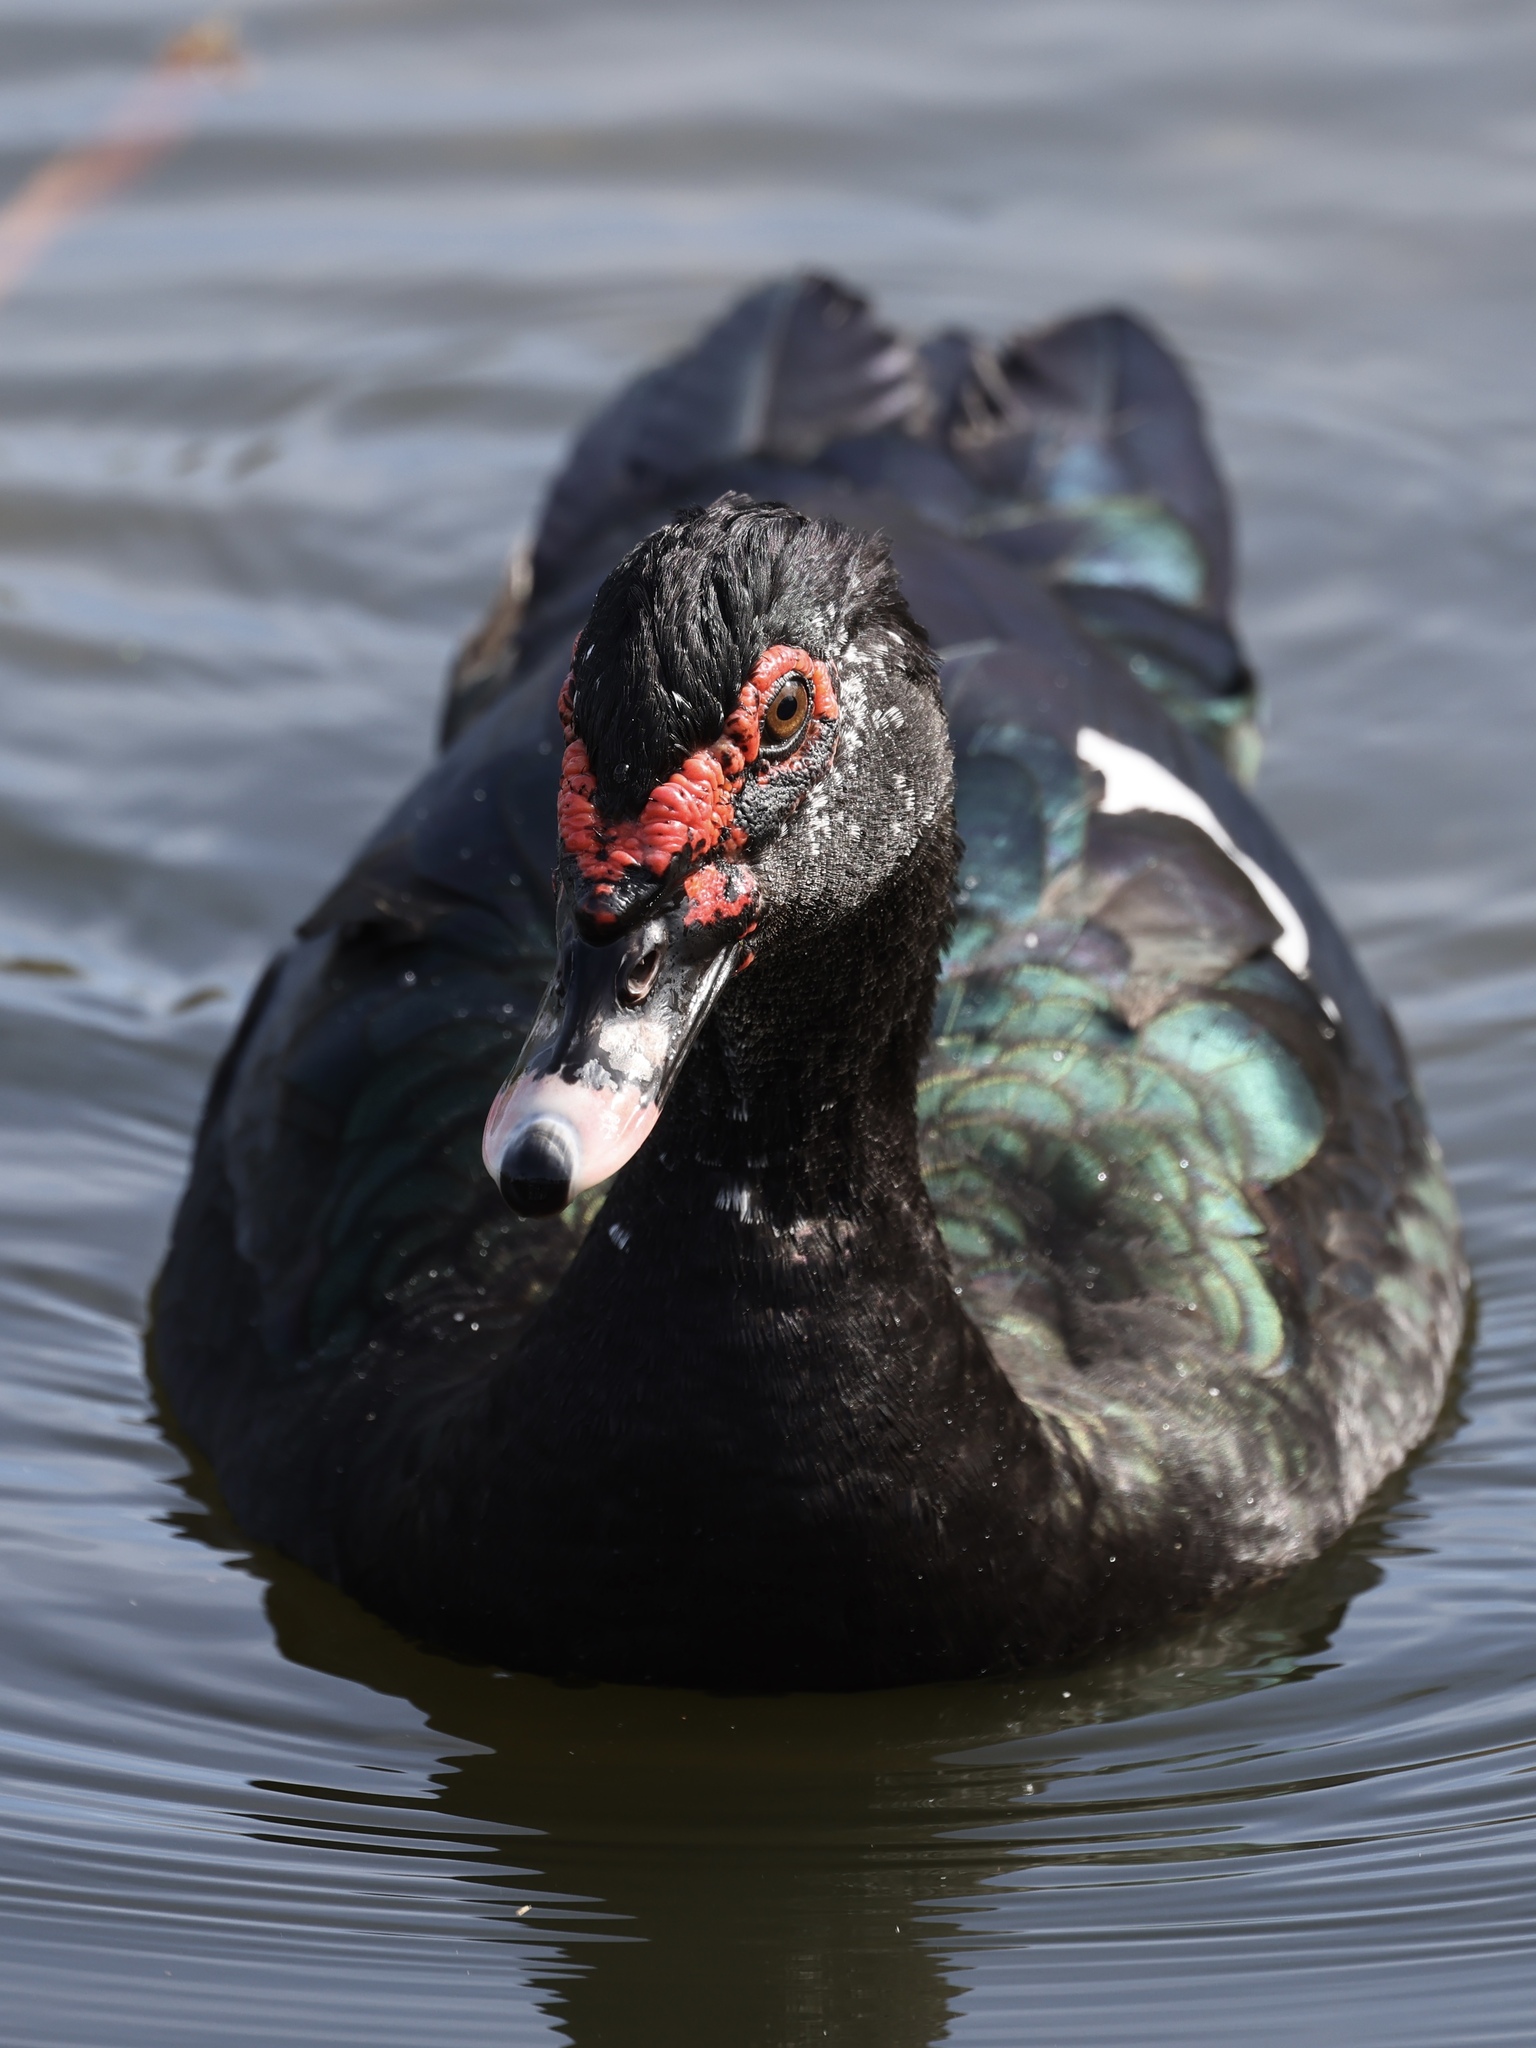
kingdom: Animalia
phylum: Chordata
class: Aves
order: Anseriformes
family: Anatidae
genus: Cairina
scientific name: Cairina moschata
